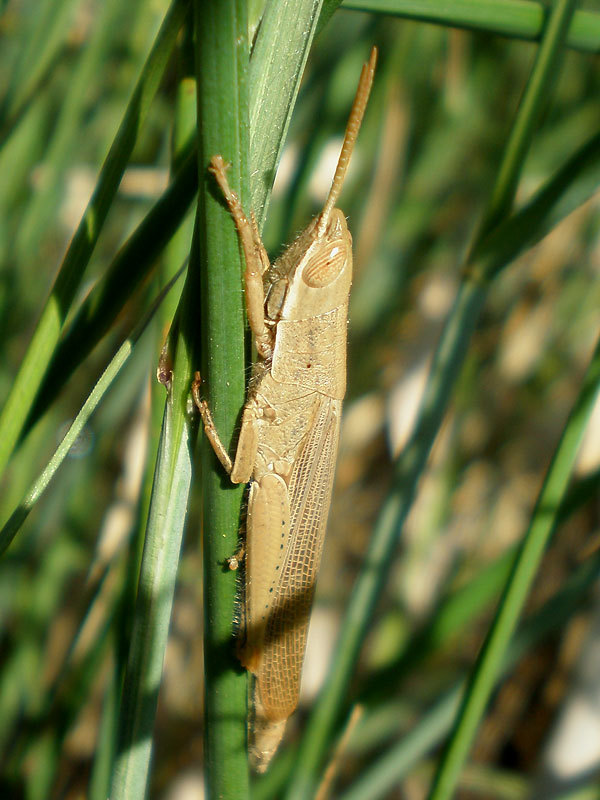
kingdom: Animalia
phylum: Arthropoda
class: Insecta
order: Orthoptera
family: Acrididae
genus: Tropidopola
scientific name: Tropidopola cylindrica
